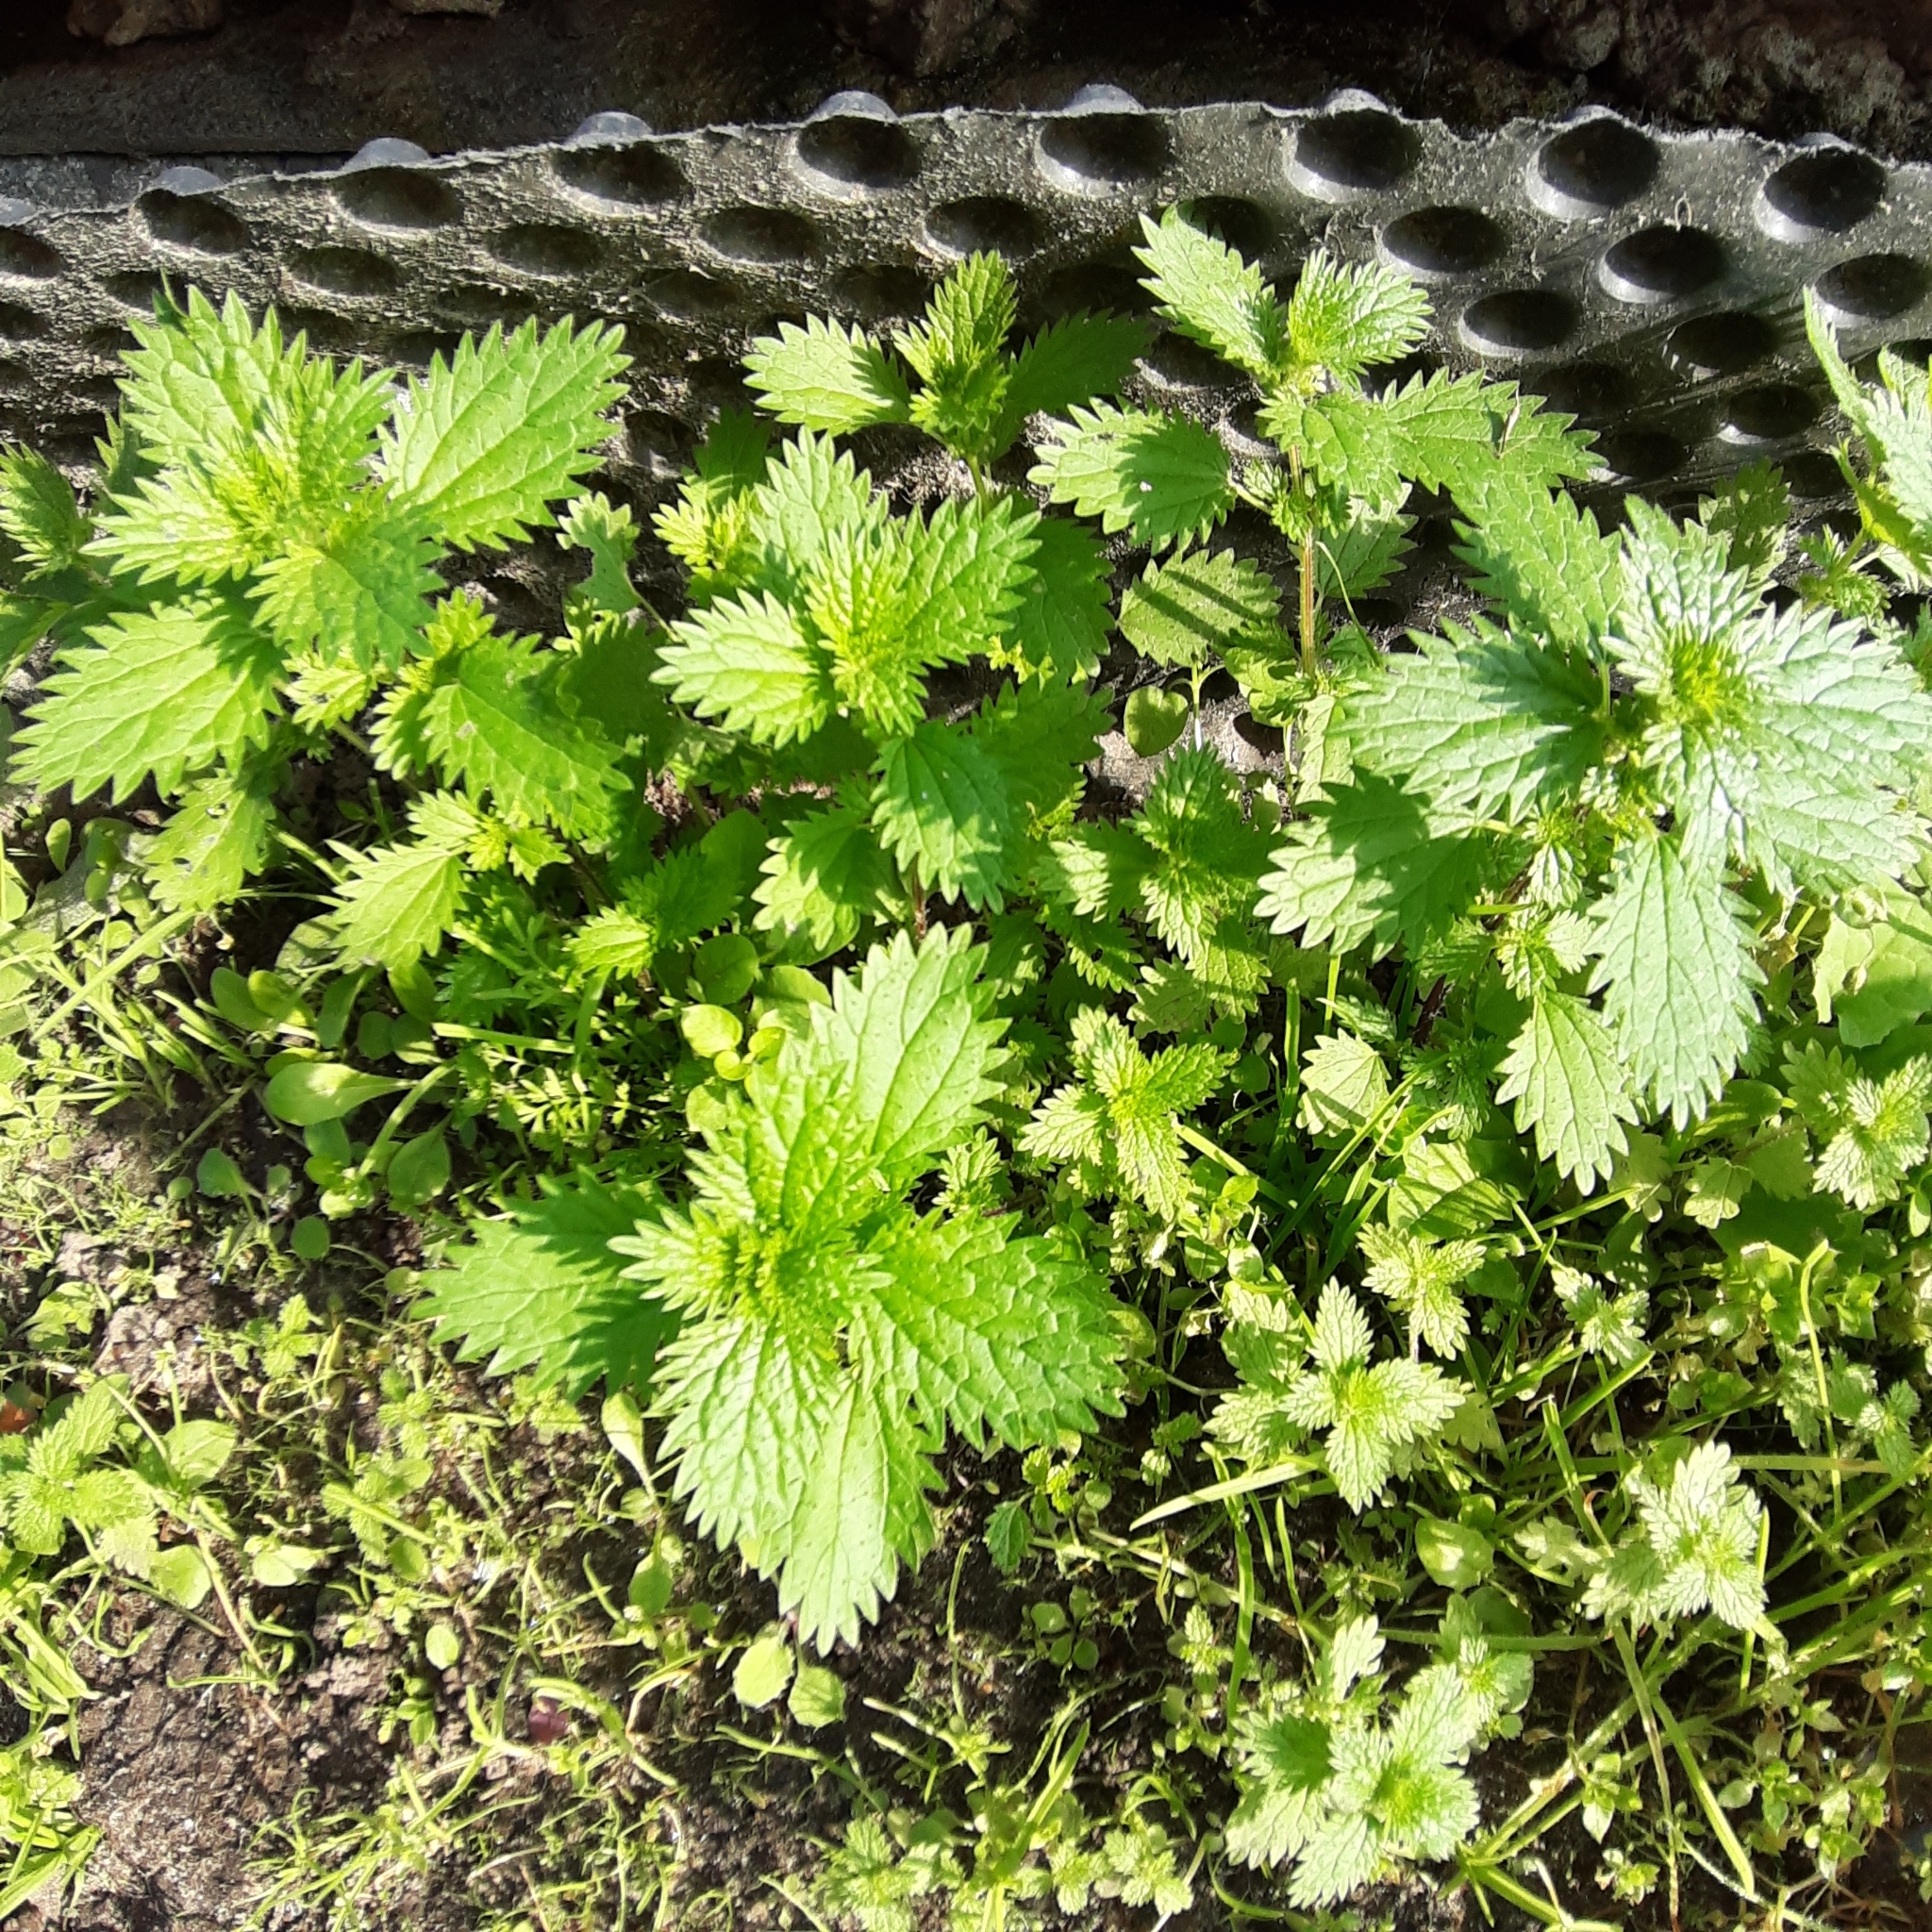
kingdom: Plantae
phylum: Tracheophyta
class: Magnoliopsida
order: Rosales
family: Urticaceae
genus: Urtica
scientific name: Urtica urens
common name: Dwarf nettle
